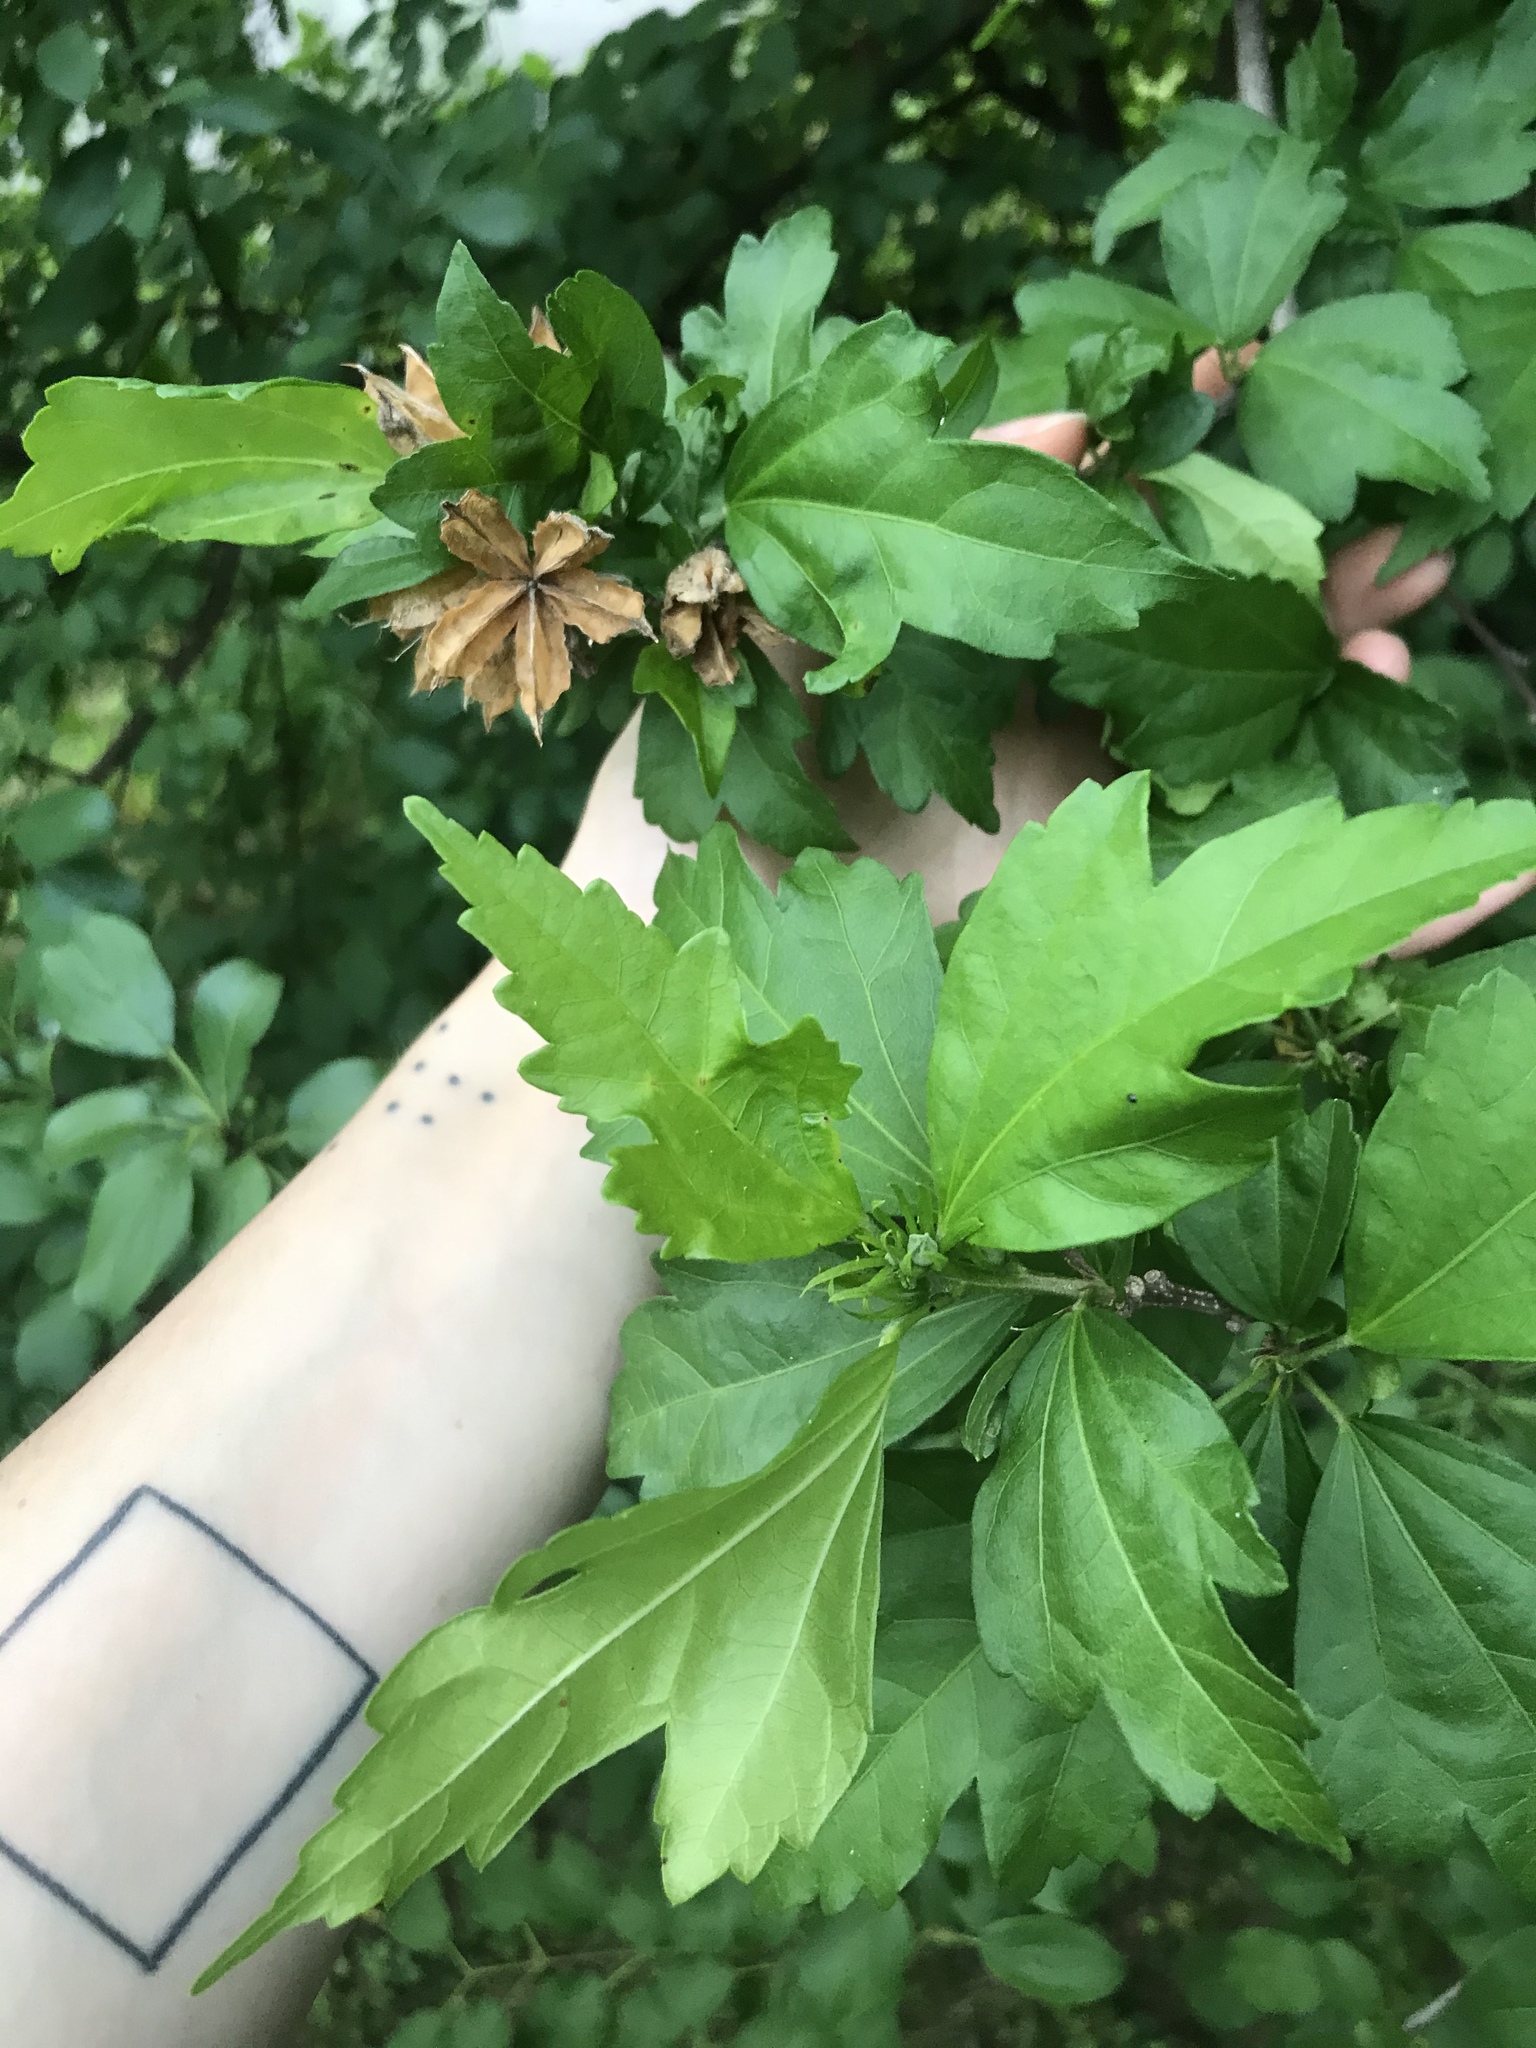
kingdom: Plantae
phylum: Tracheophyta
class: Magnoliopsida
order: Malvales
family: Malvaceae
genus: Hibiscus
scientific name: Hibiscus syriacus
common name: Syrian ketmia
